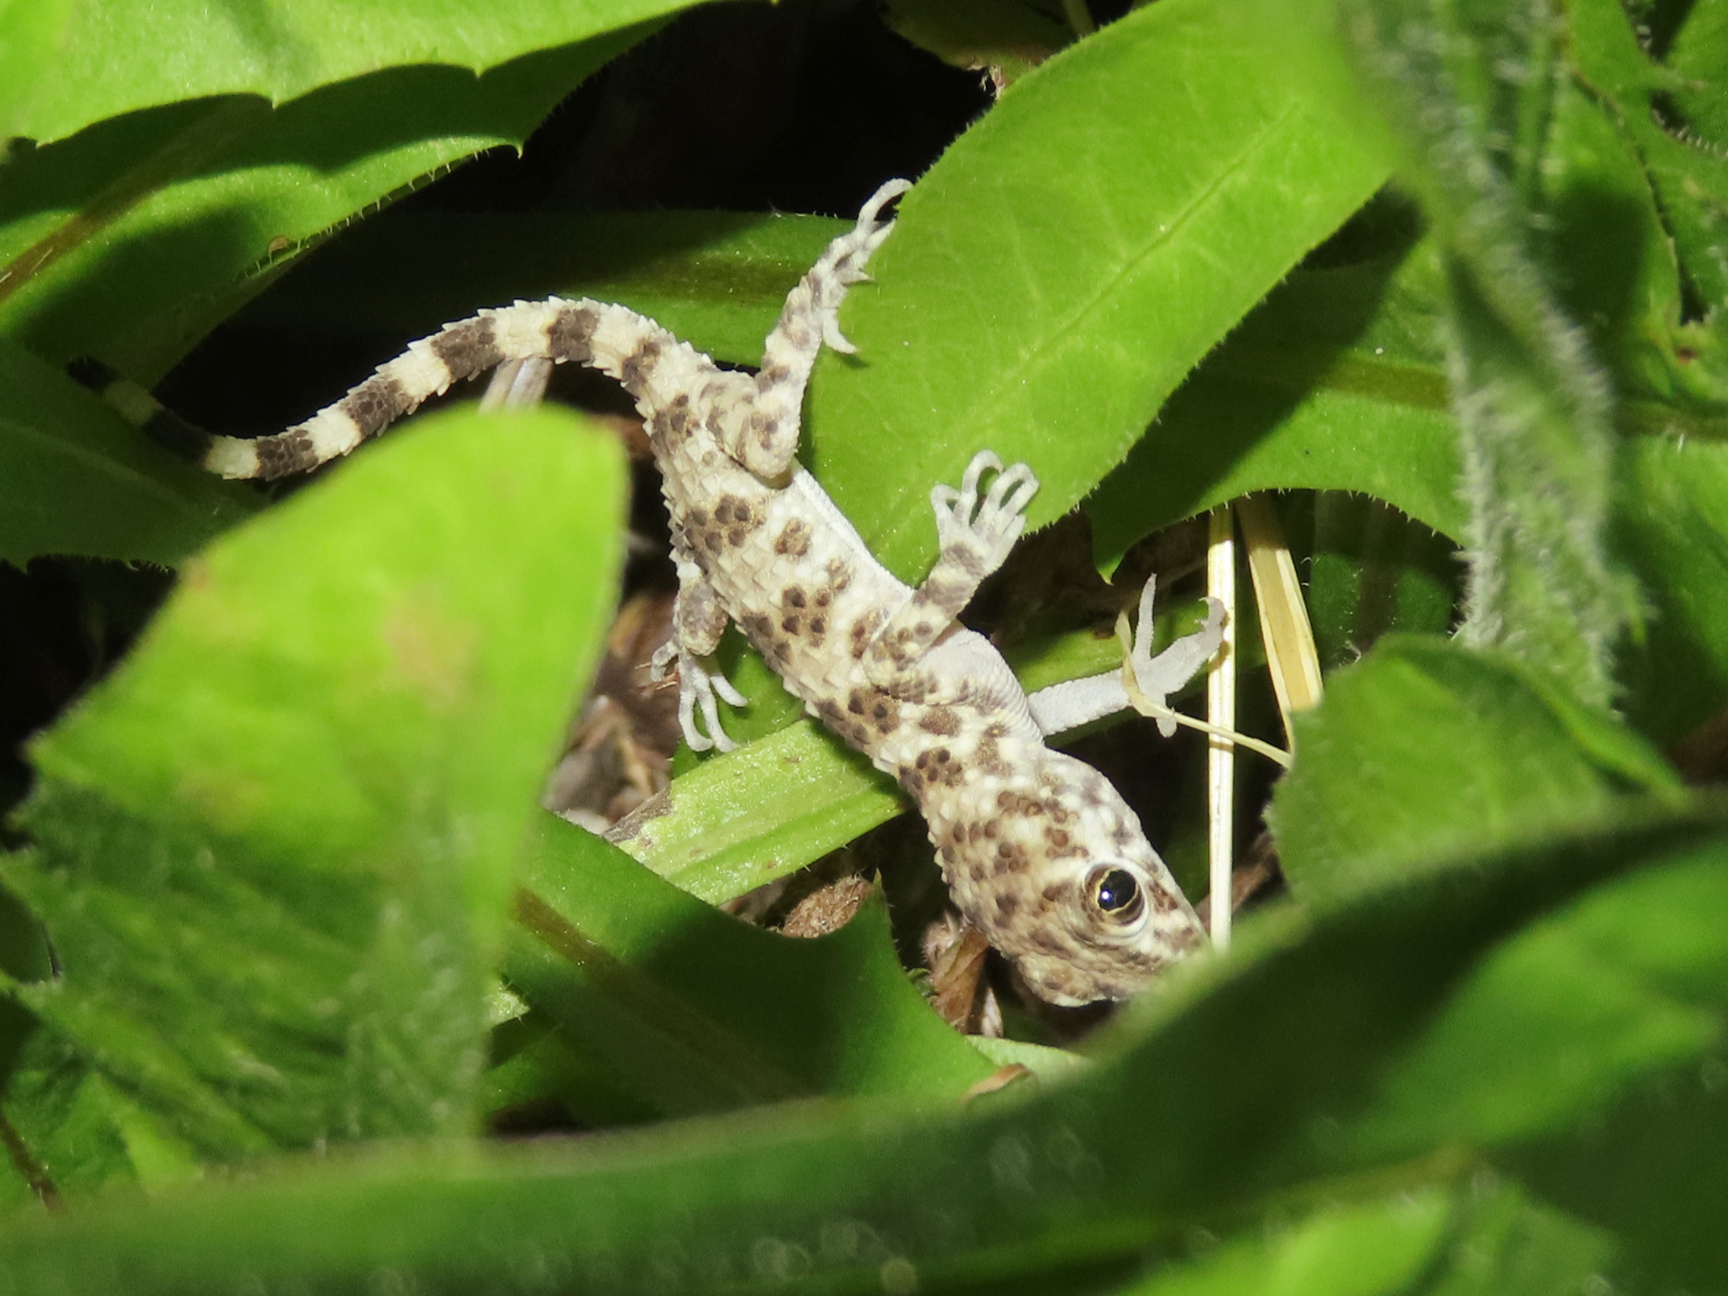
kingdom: Animalia
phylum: Chordata
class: Squamata
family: Gekkonidae
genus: Tenuidactylus
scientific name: Tenuidactylus caspius
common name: Caspian bent-toed gecko
